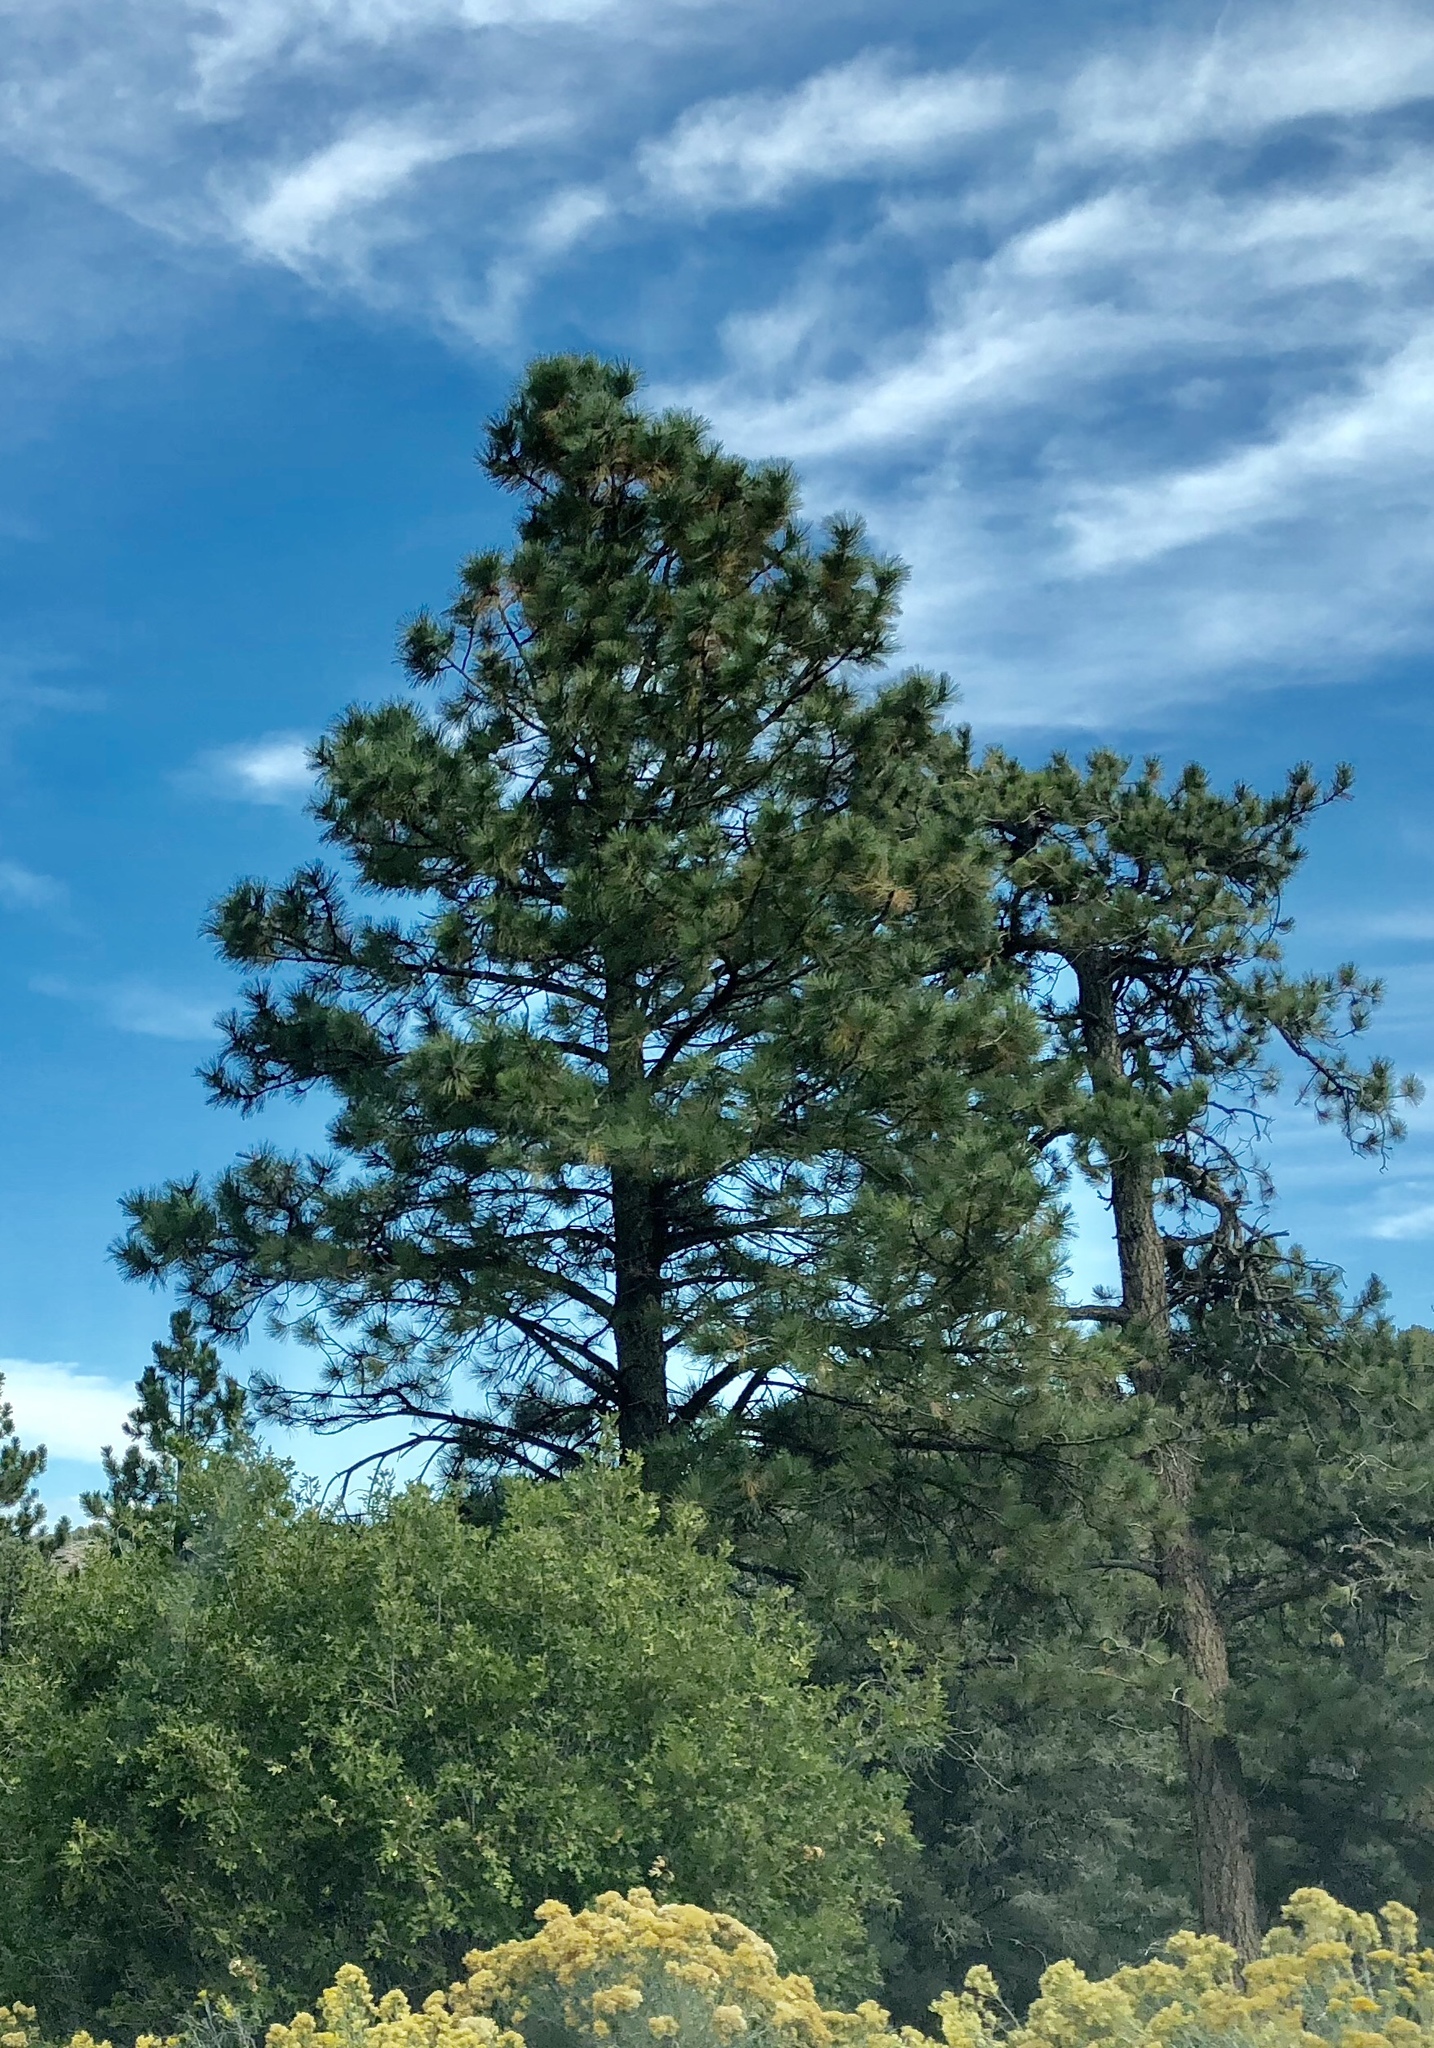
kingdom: Plantae
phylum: Tracheophyta
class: Pinopsida
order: Pinales
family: Pinaceae
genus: Pinus
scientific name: Pinus ponderosa
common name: Western yellow-pine
